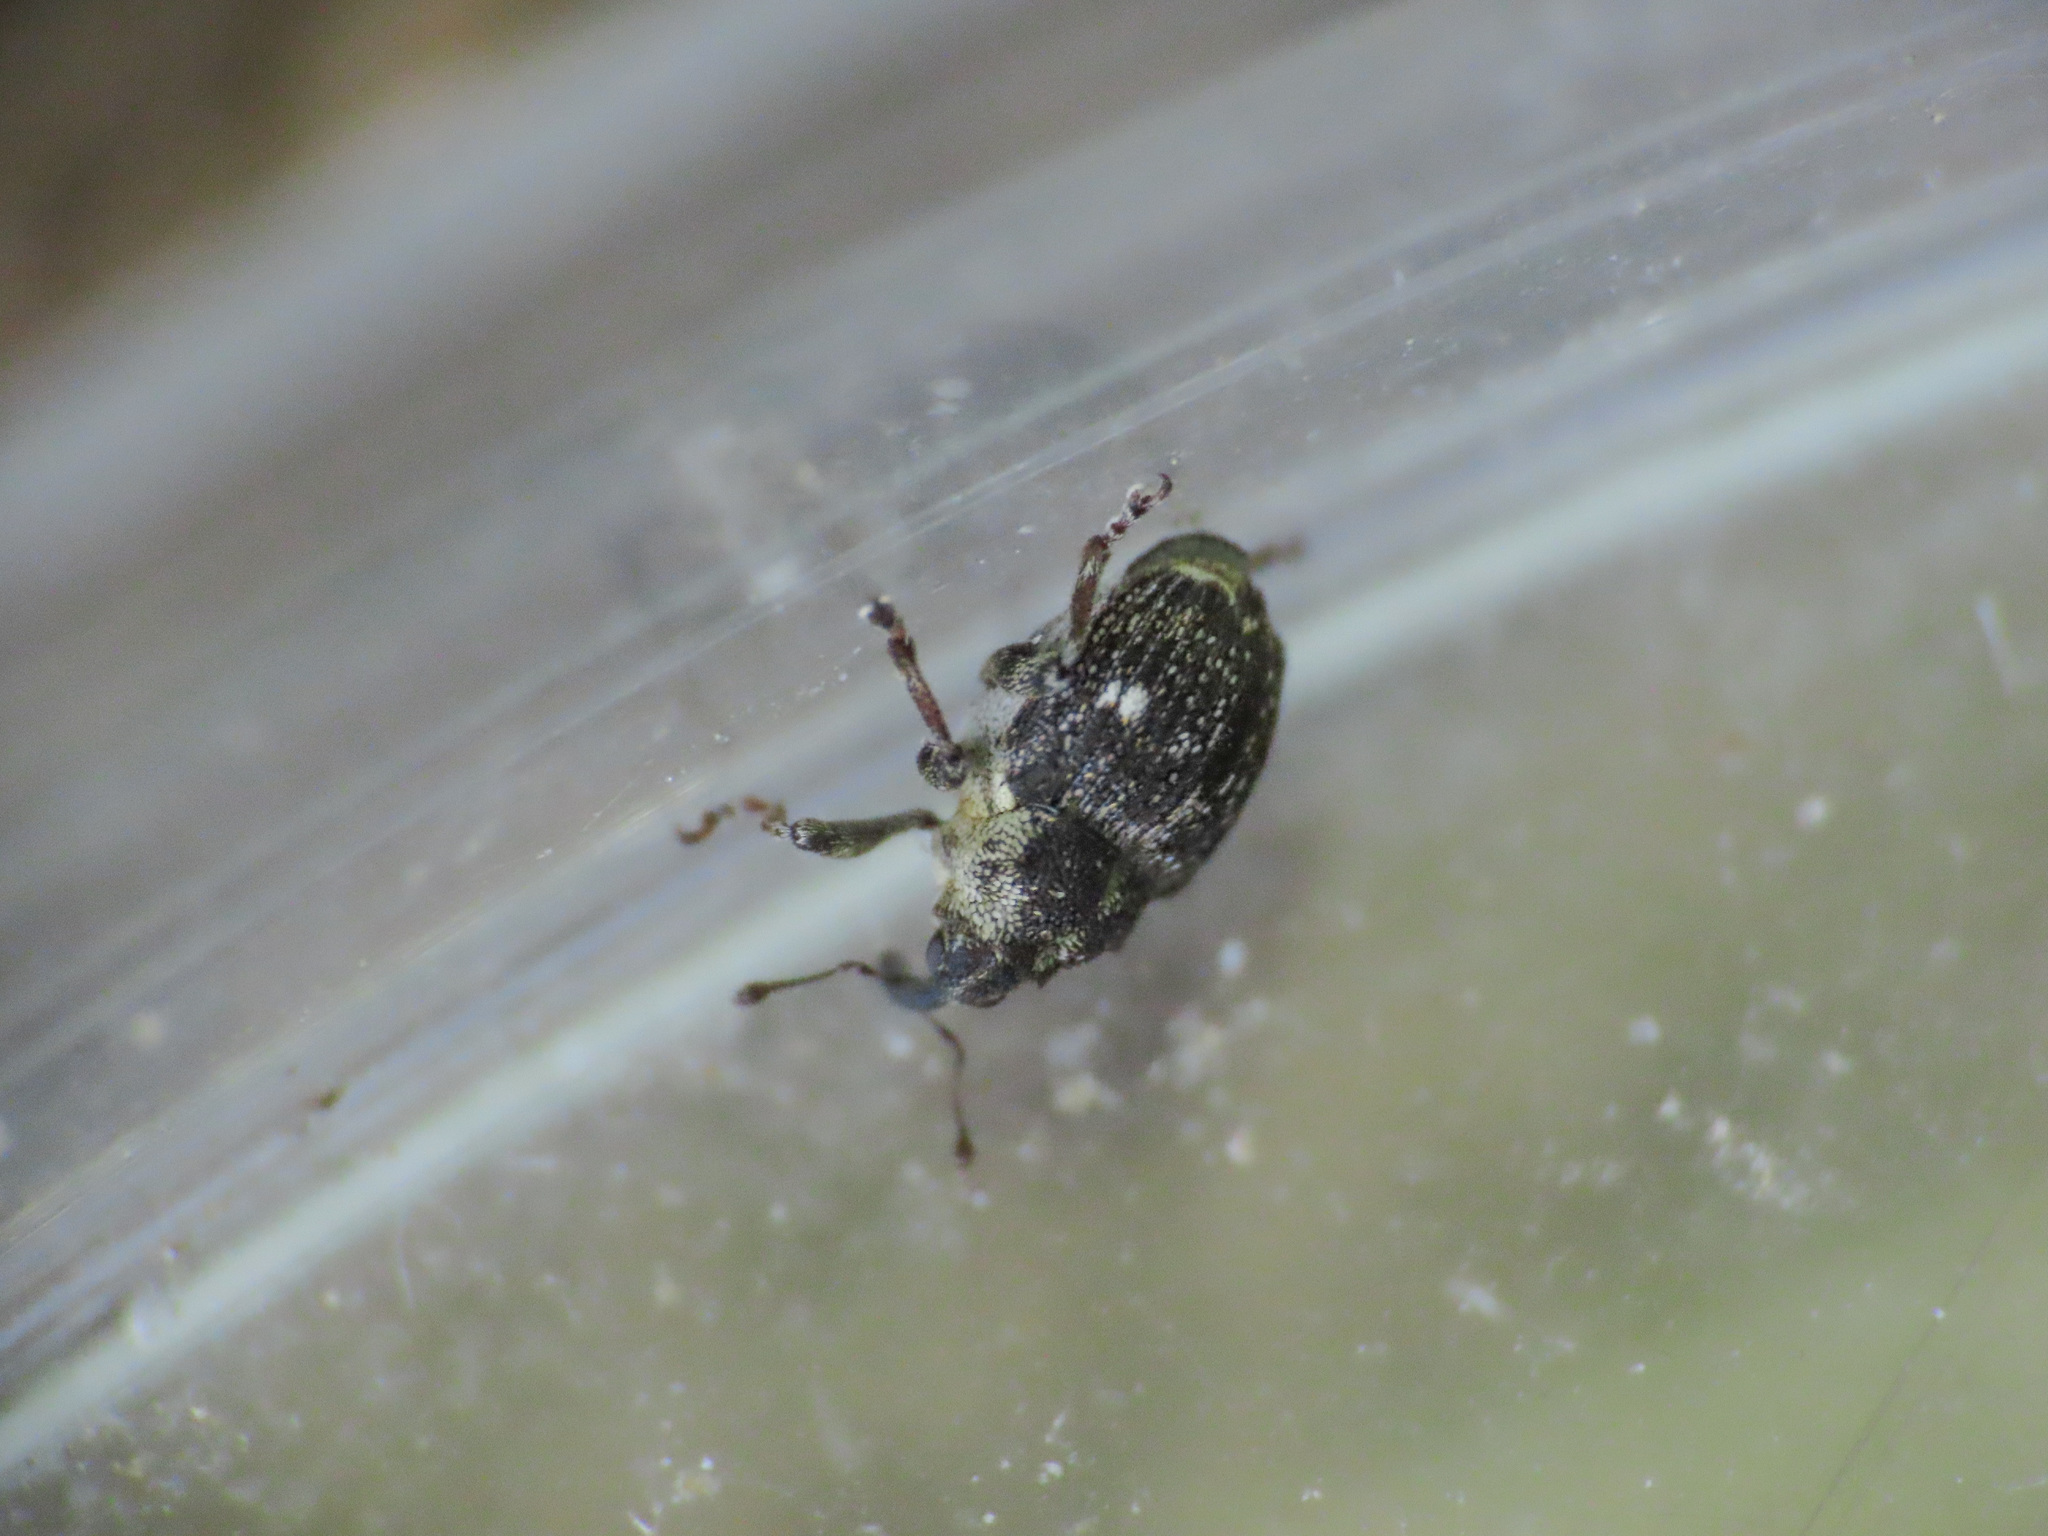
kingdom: Animalia
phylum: Arthropoda
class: Insecta
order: Coleoptera
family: Curculionidae
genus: Nedyus
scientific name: Nedyus quadrimaculatus
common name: Small nettle weevil
